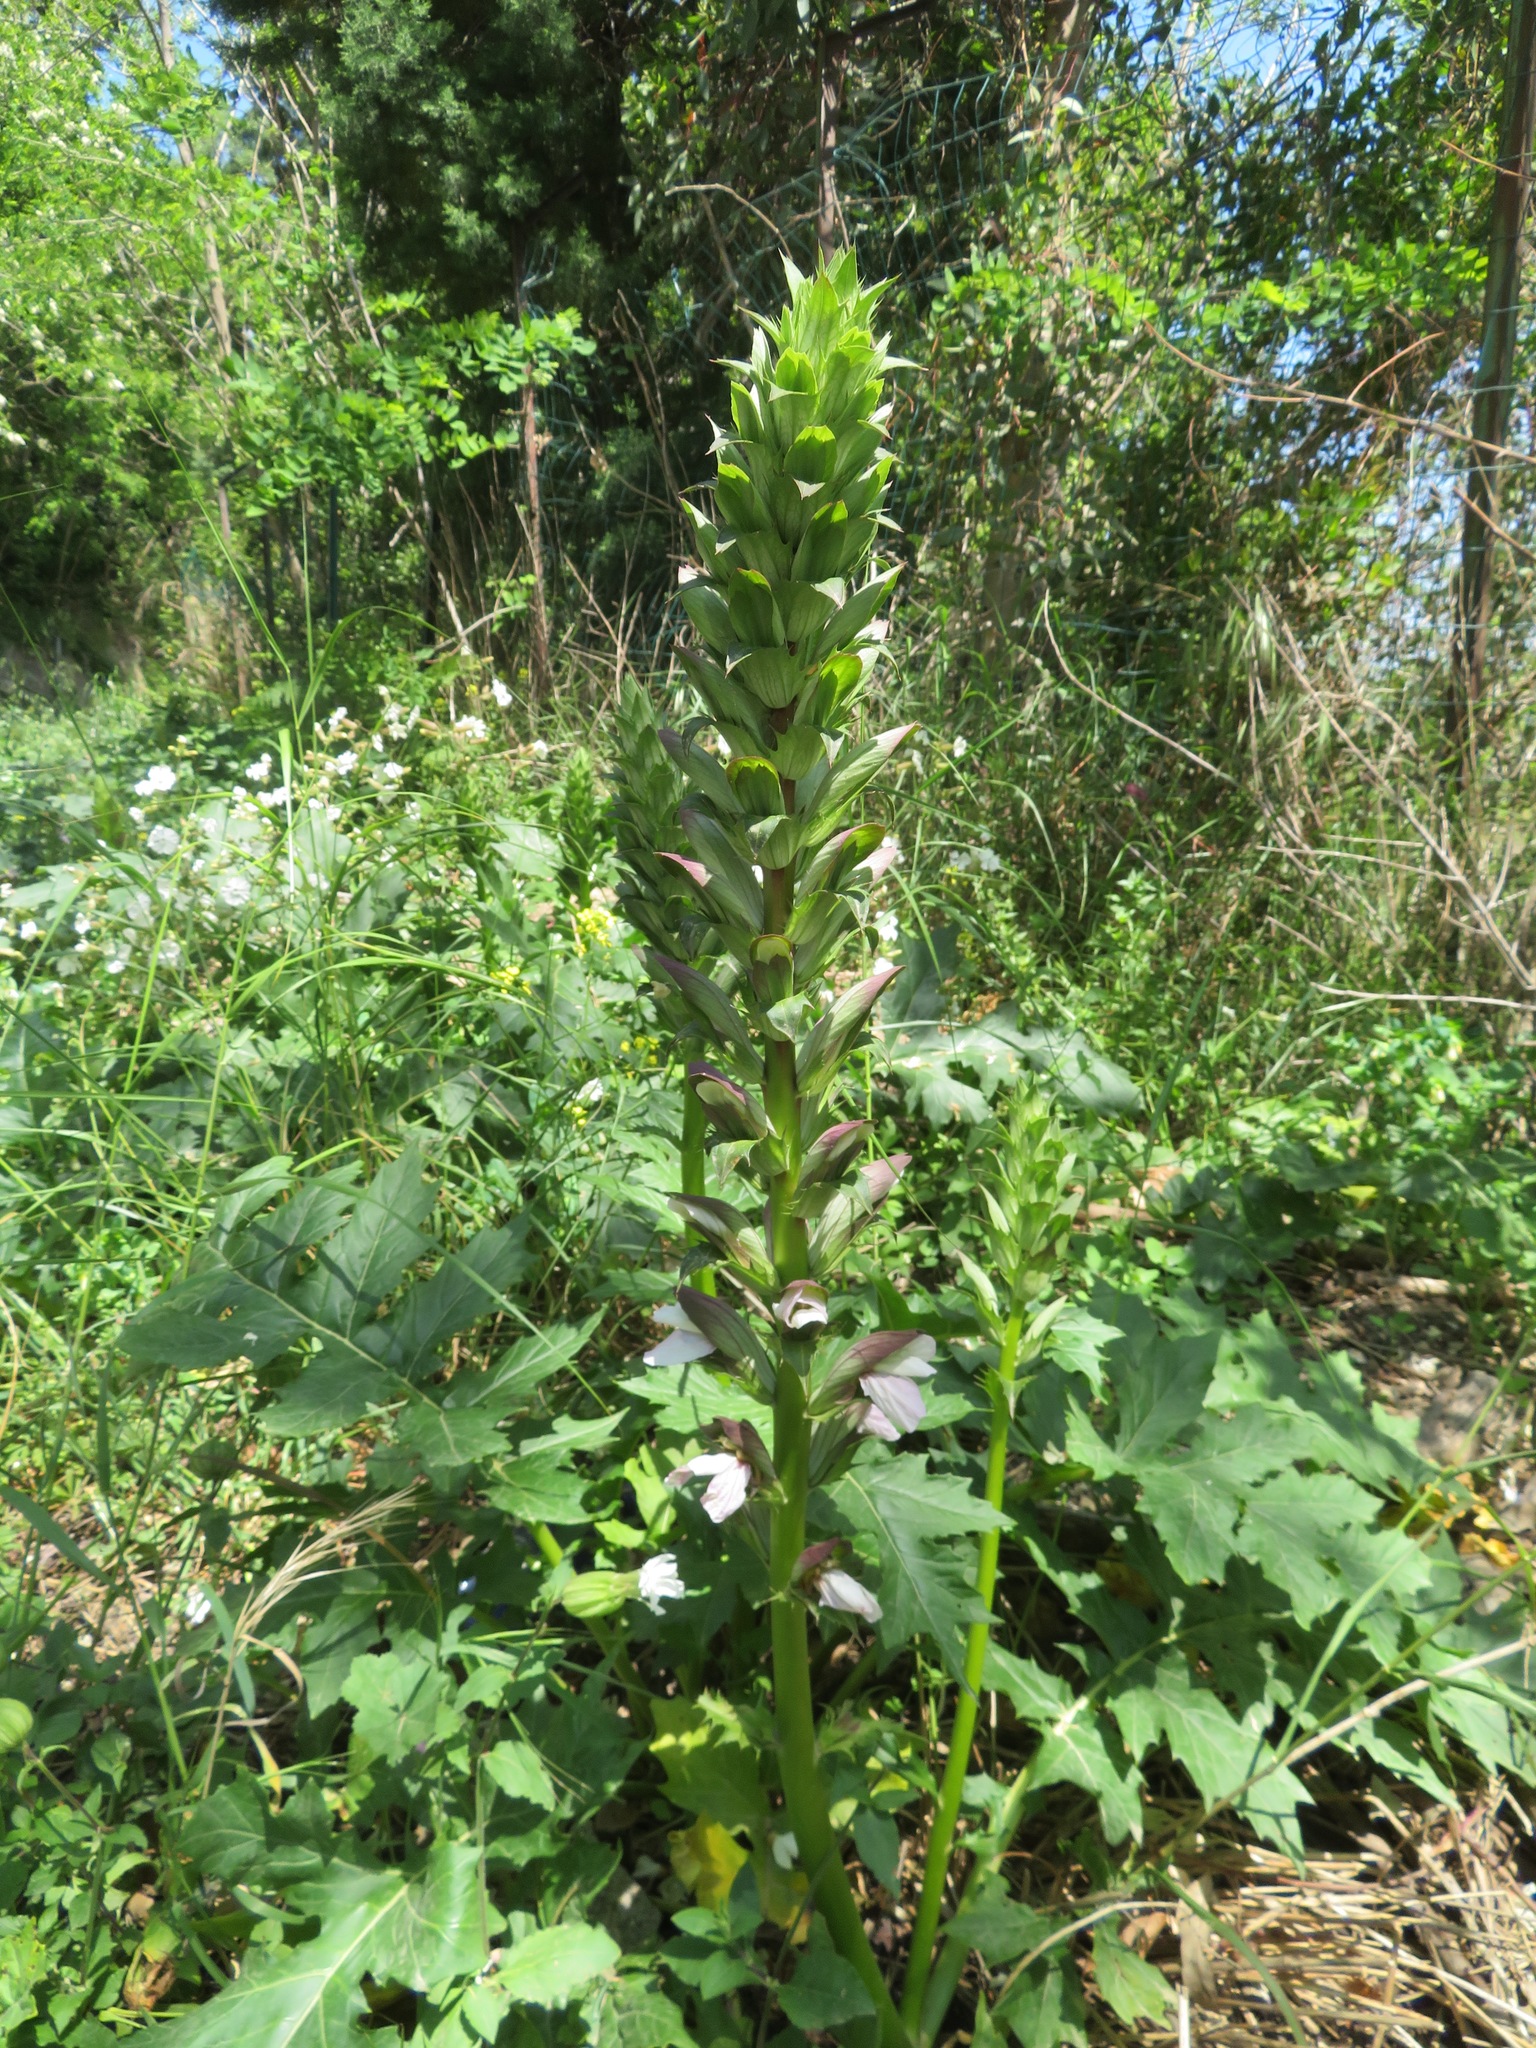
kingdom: Plantae
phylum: Tracheophyta
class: Magnoliopsida
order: Lamiales
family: Acanthaceae
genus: Acanthus
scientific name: Acanthus mollis
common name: Bear's-breech
